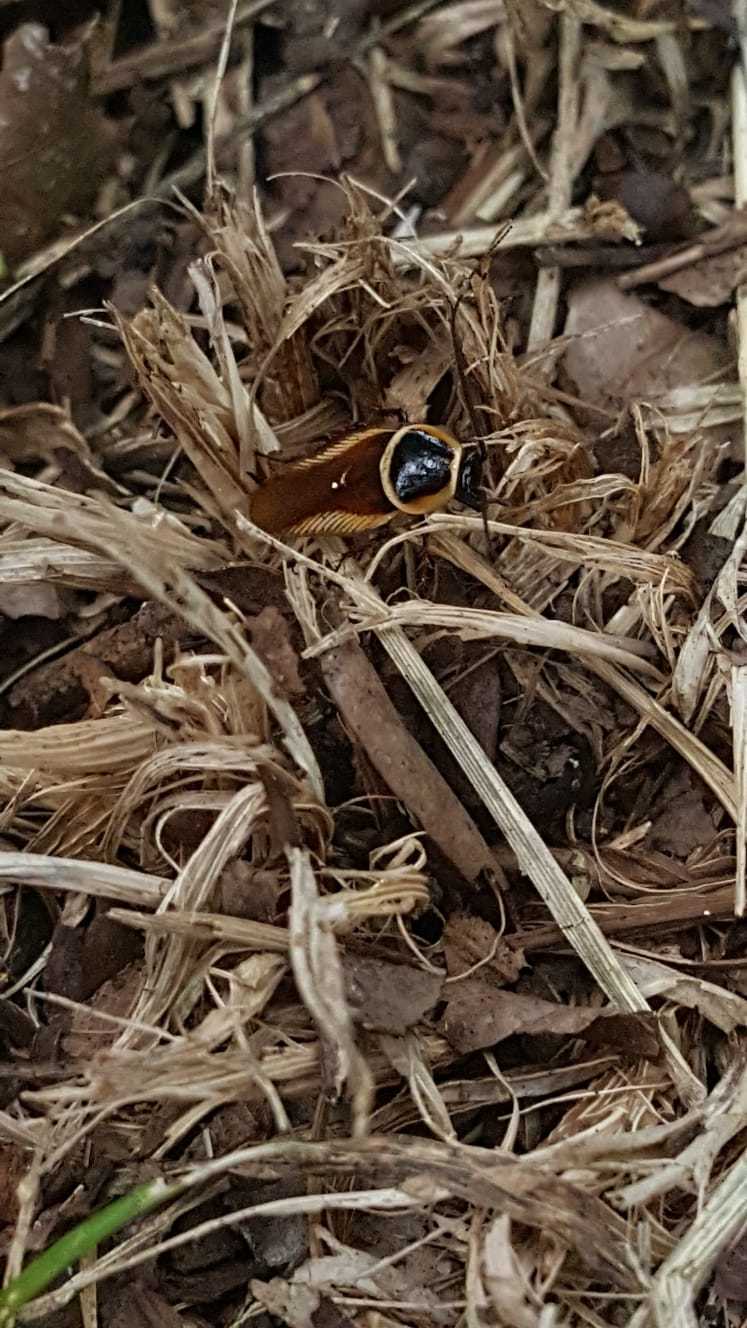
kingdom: Animalia
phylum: Arthropoda
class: Insecta
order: Blattodea
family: Ectobiidae
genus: Pseudomops
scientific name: Pseudomops neglectus
